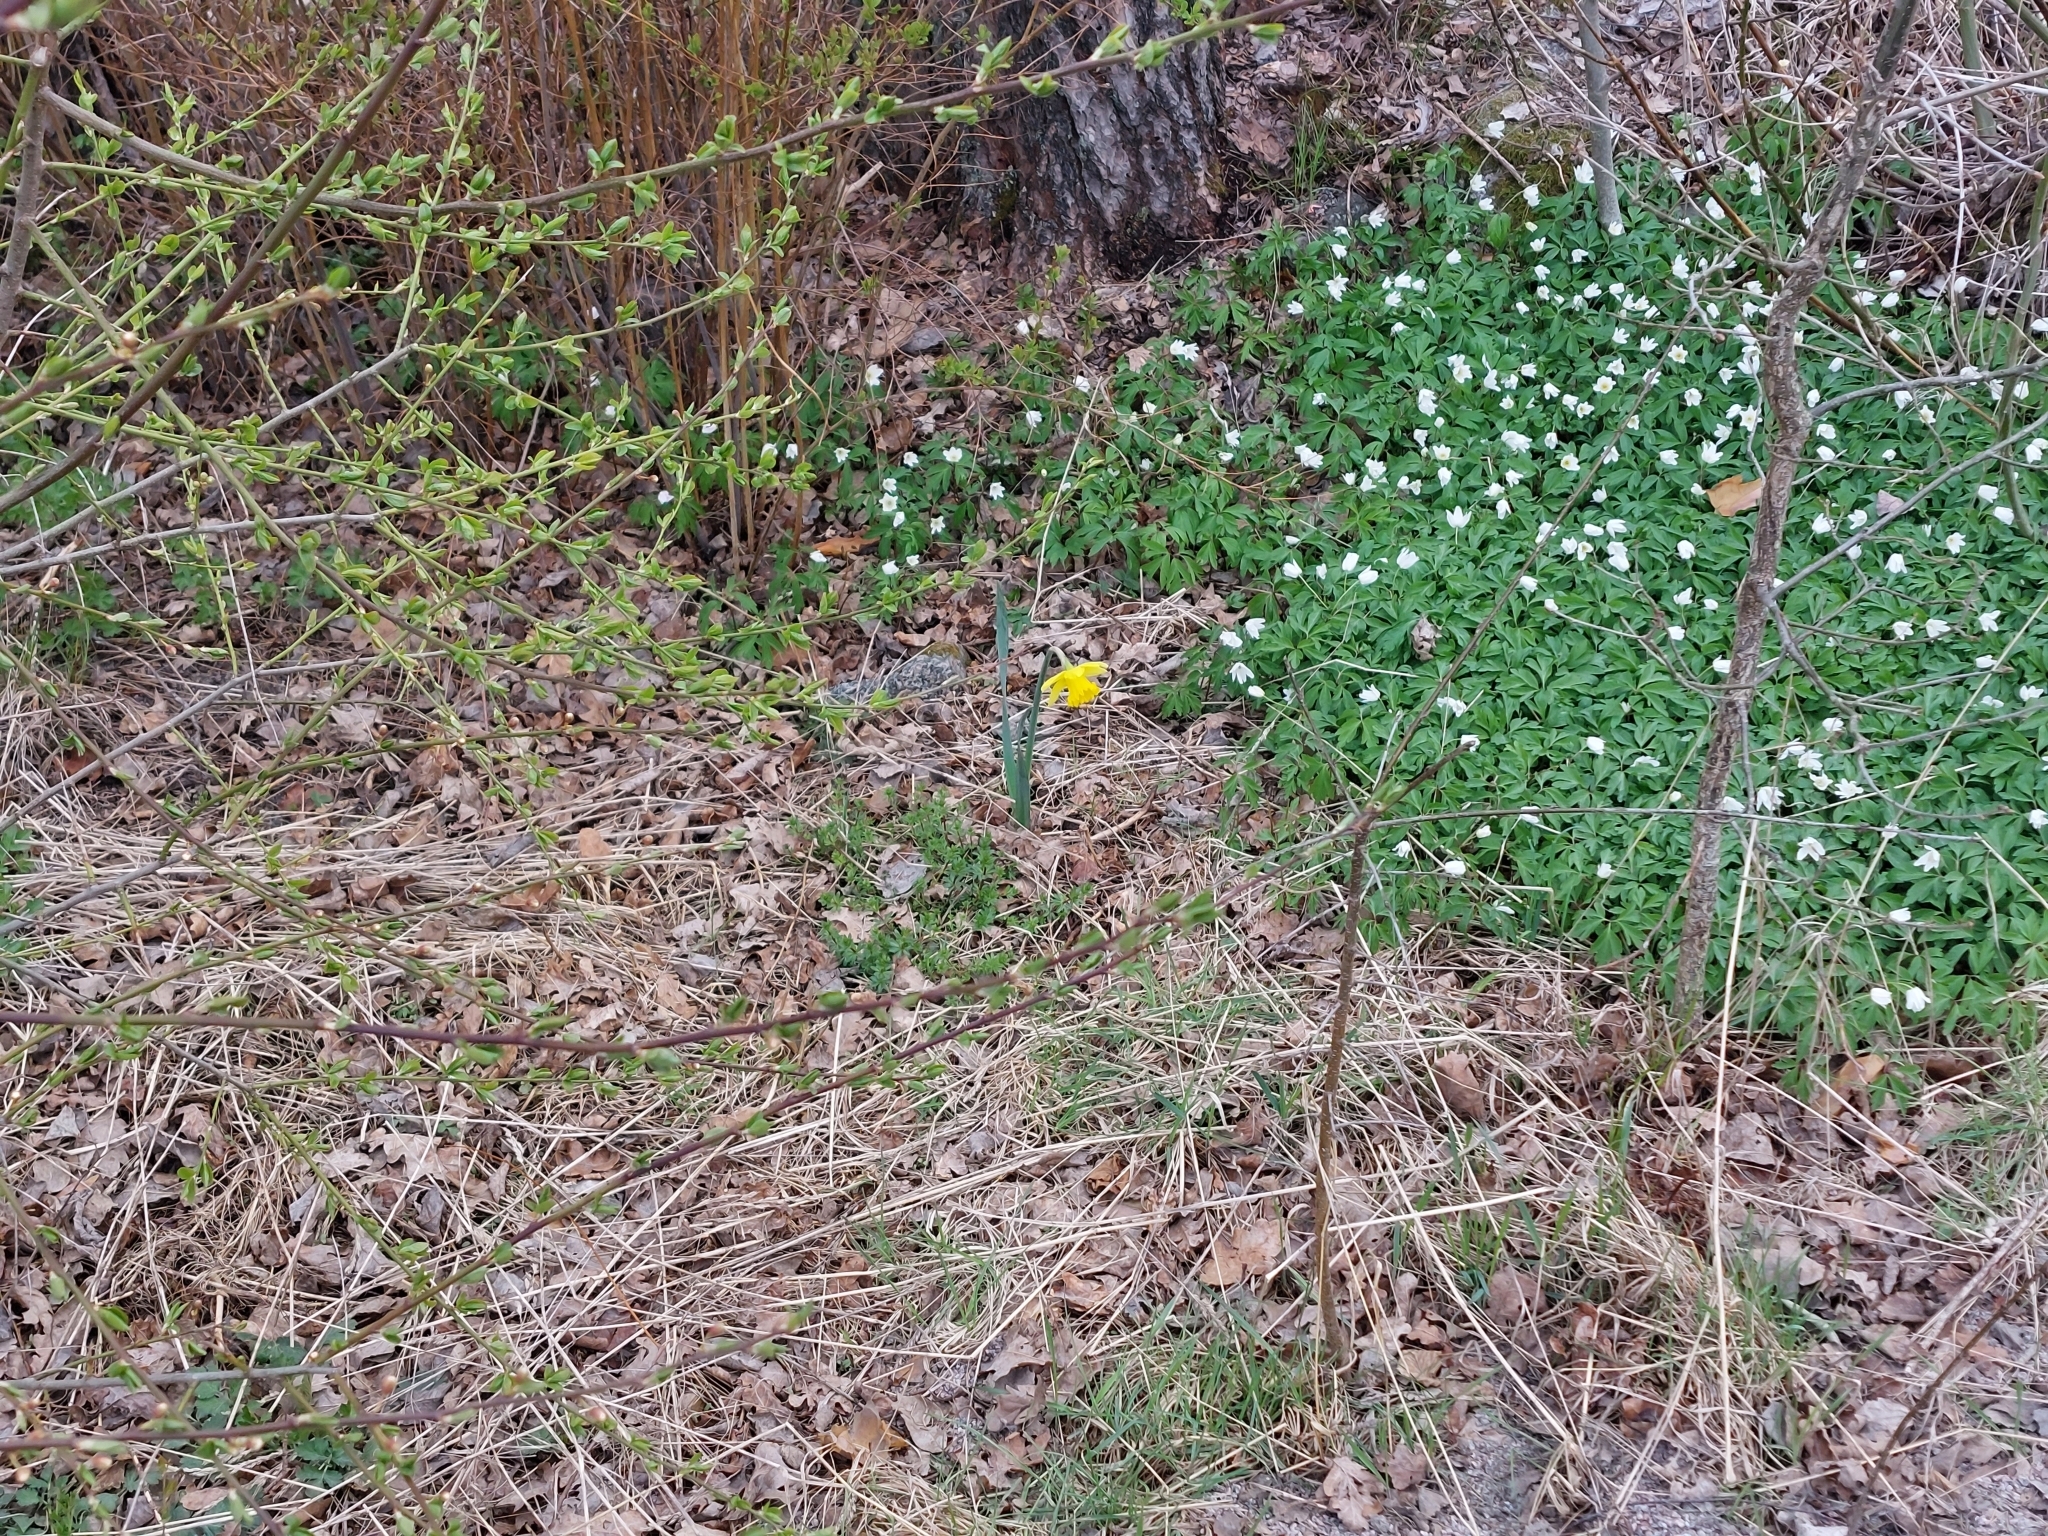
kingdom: Plantae
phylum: Tracheophyta
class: Liliopsida
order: Asparagales
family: Amaryllidaceae
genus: Narcissus
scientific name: Narcissus pseudonarcissus
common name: Daffodil
